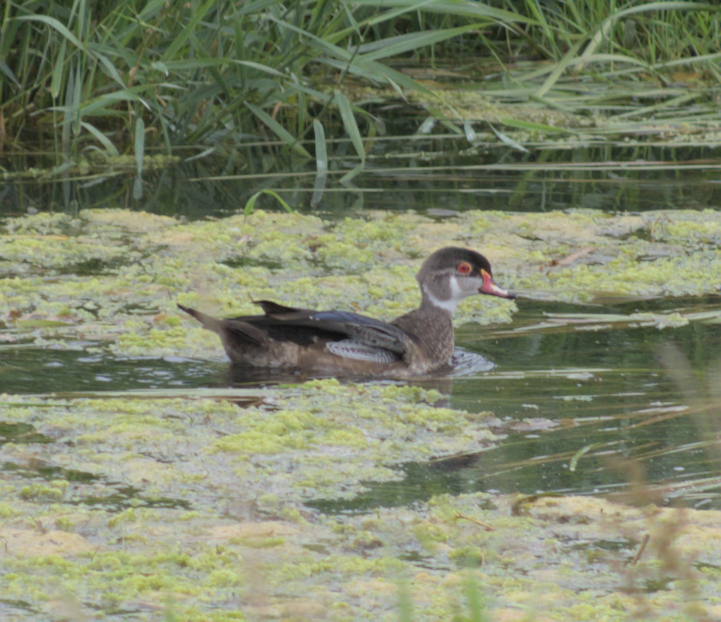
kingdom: Animalia
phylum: Chordata
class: Aves
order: Anseriformes
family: Anatidae
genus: Aix
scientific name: Aix sponsa
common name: Wood duck
